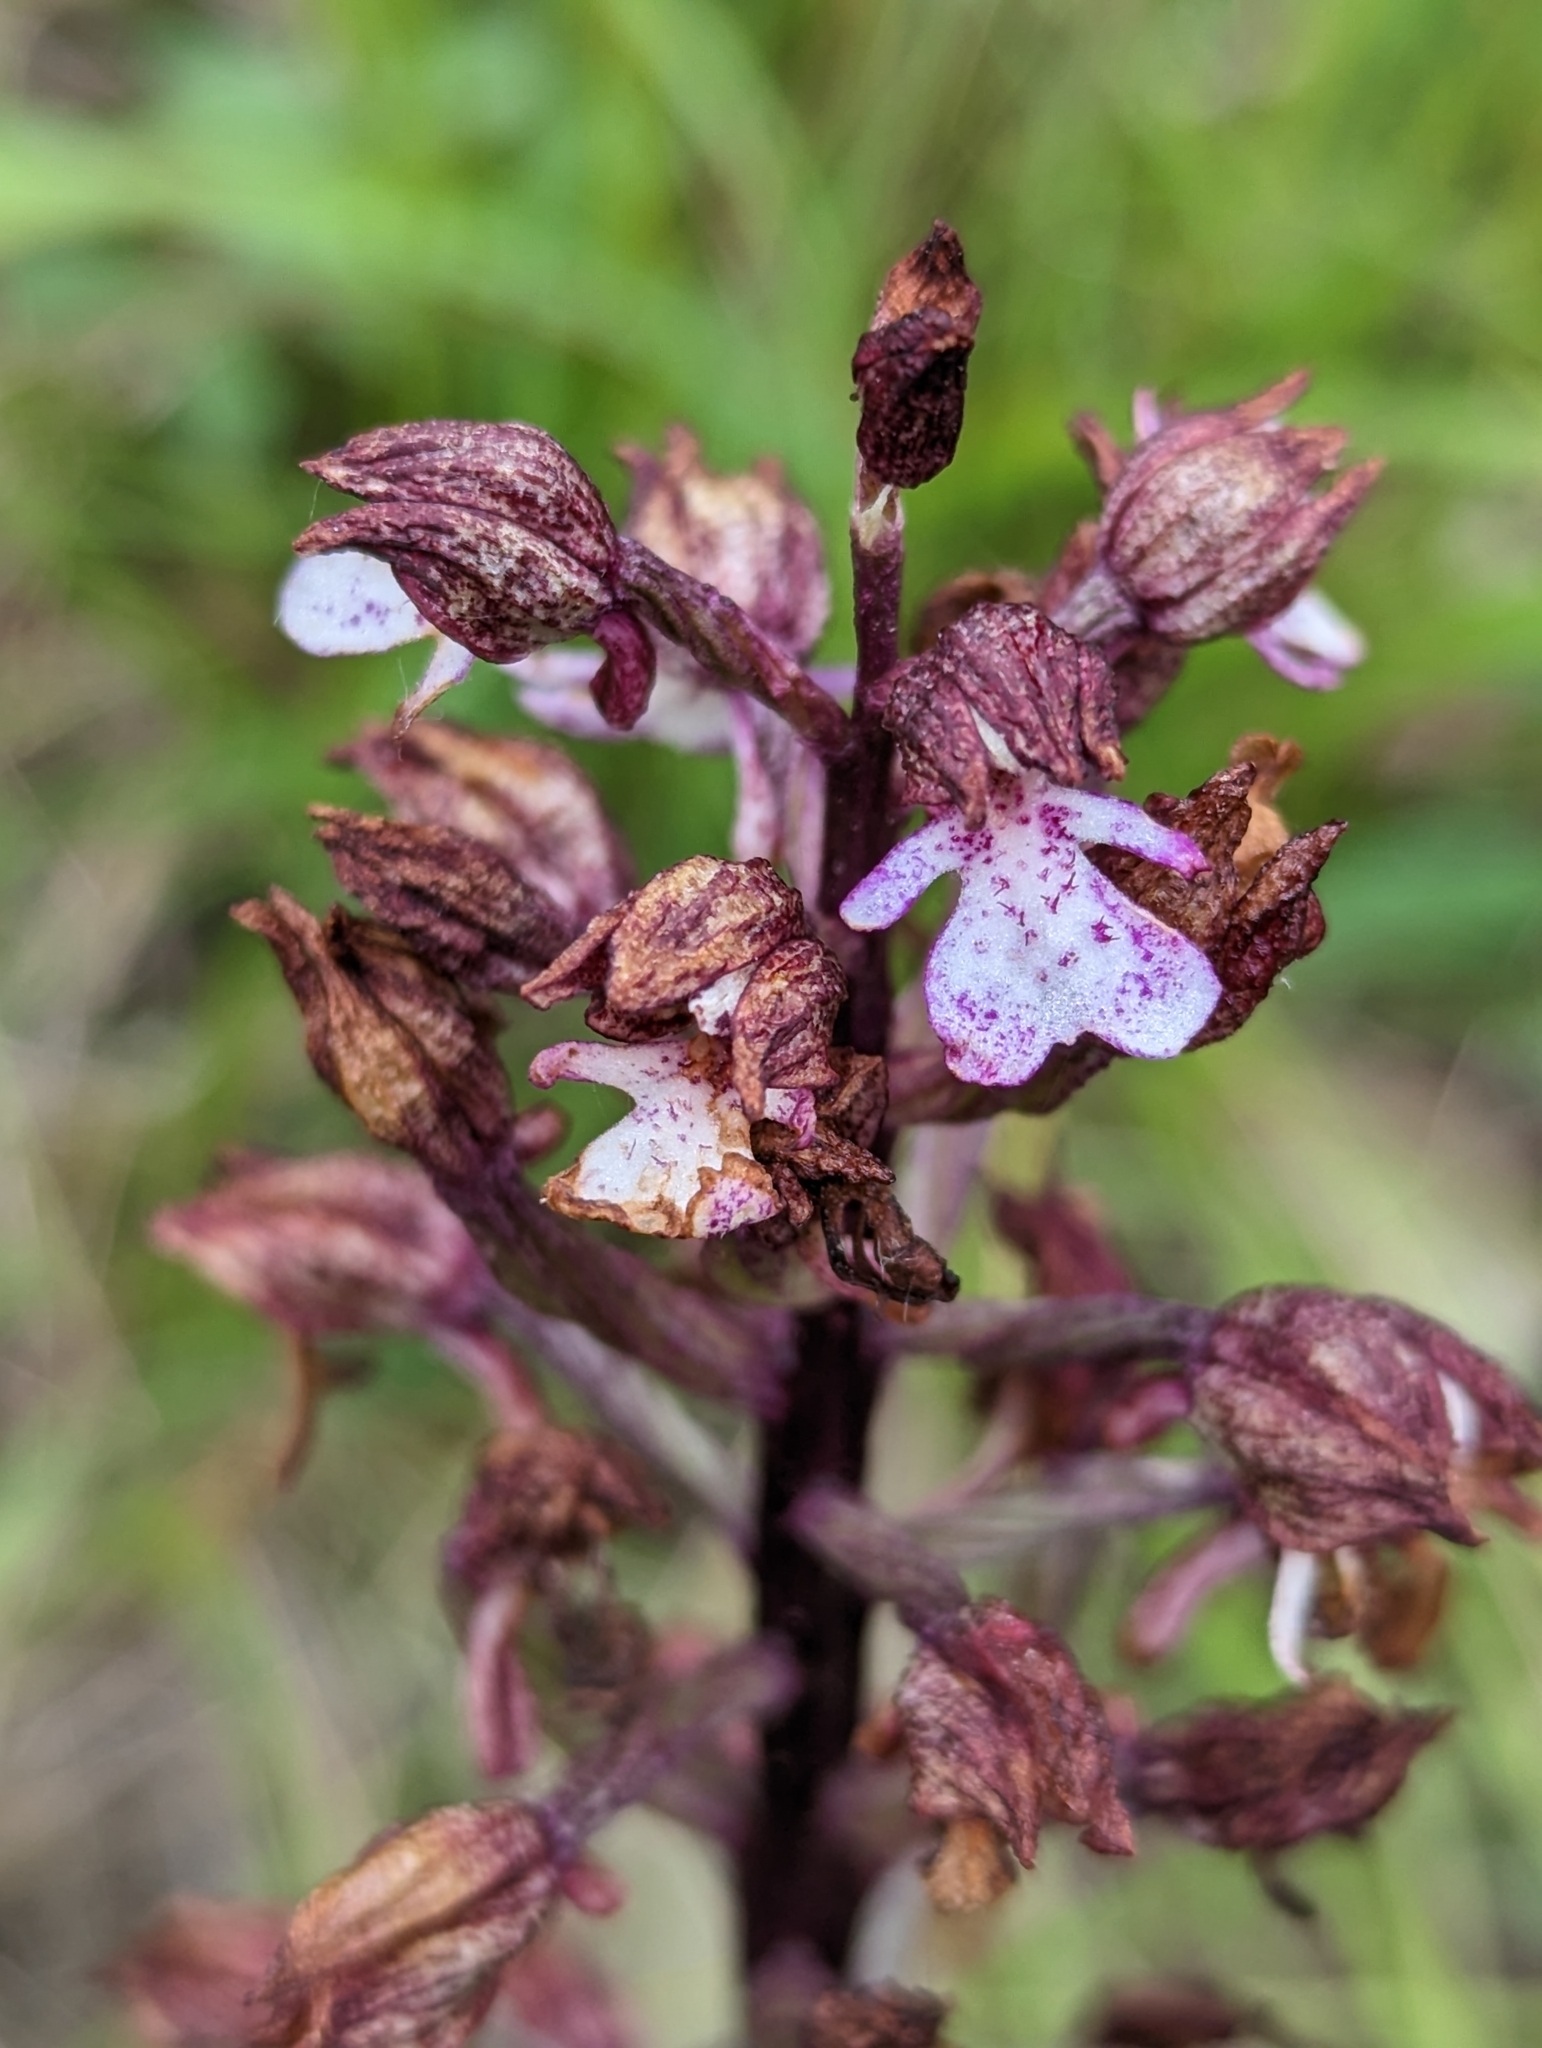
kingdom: Plantae
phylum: Tracheophyta
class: Liliopsida
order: Asparagales
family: Orchidaceae
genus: Orchis
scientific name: Orchis purpurea
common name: Lady orchid
